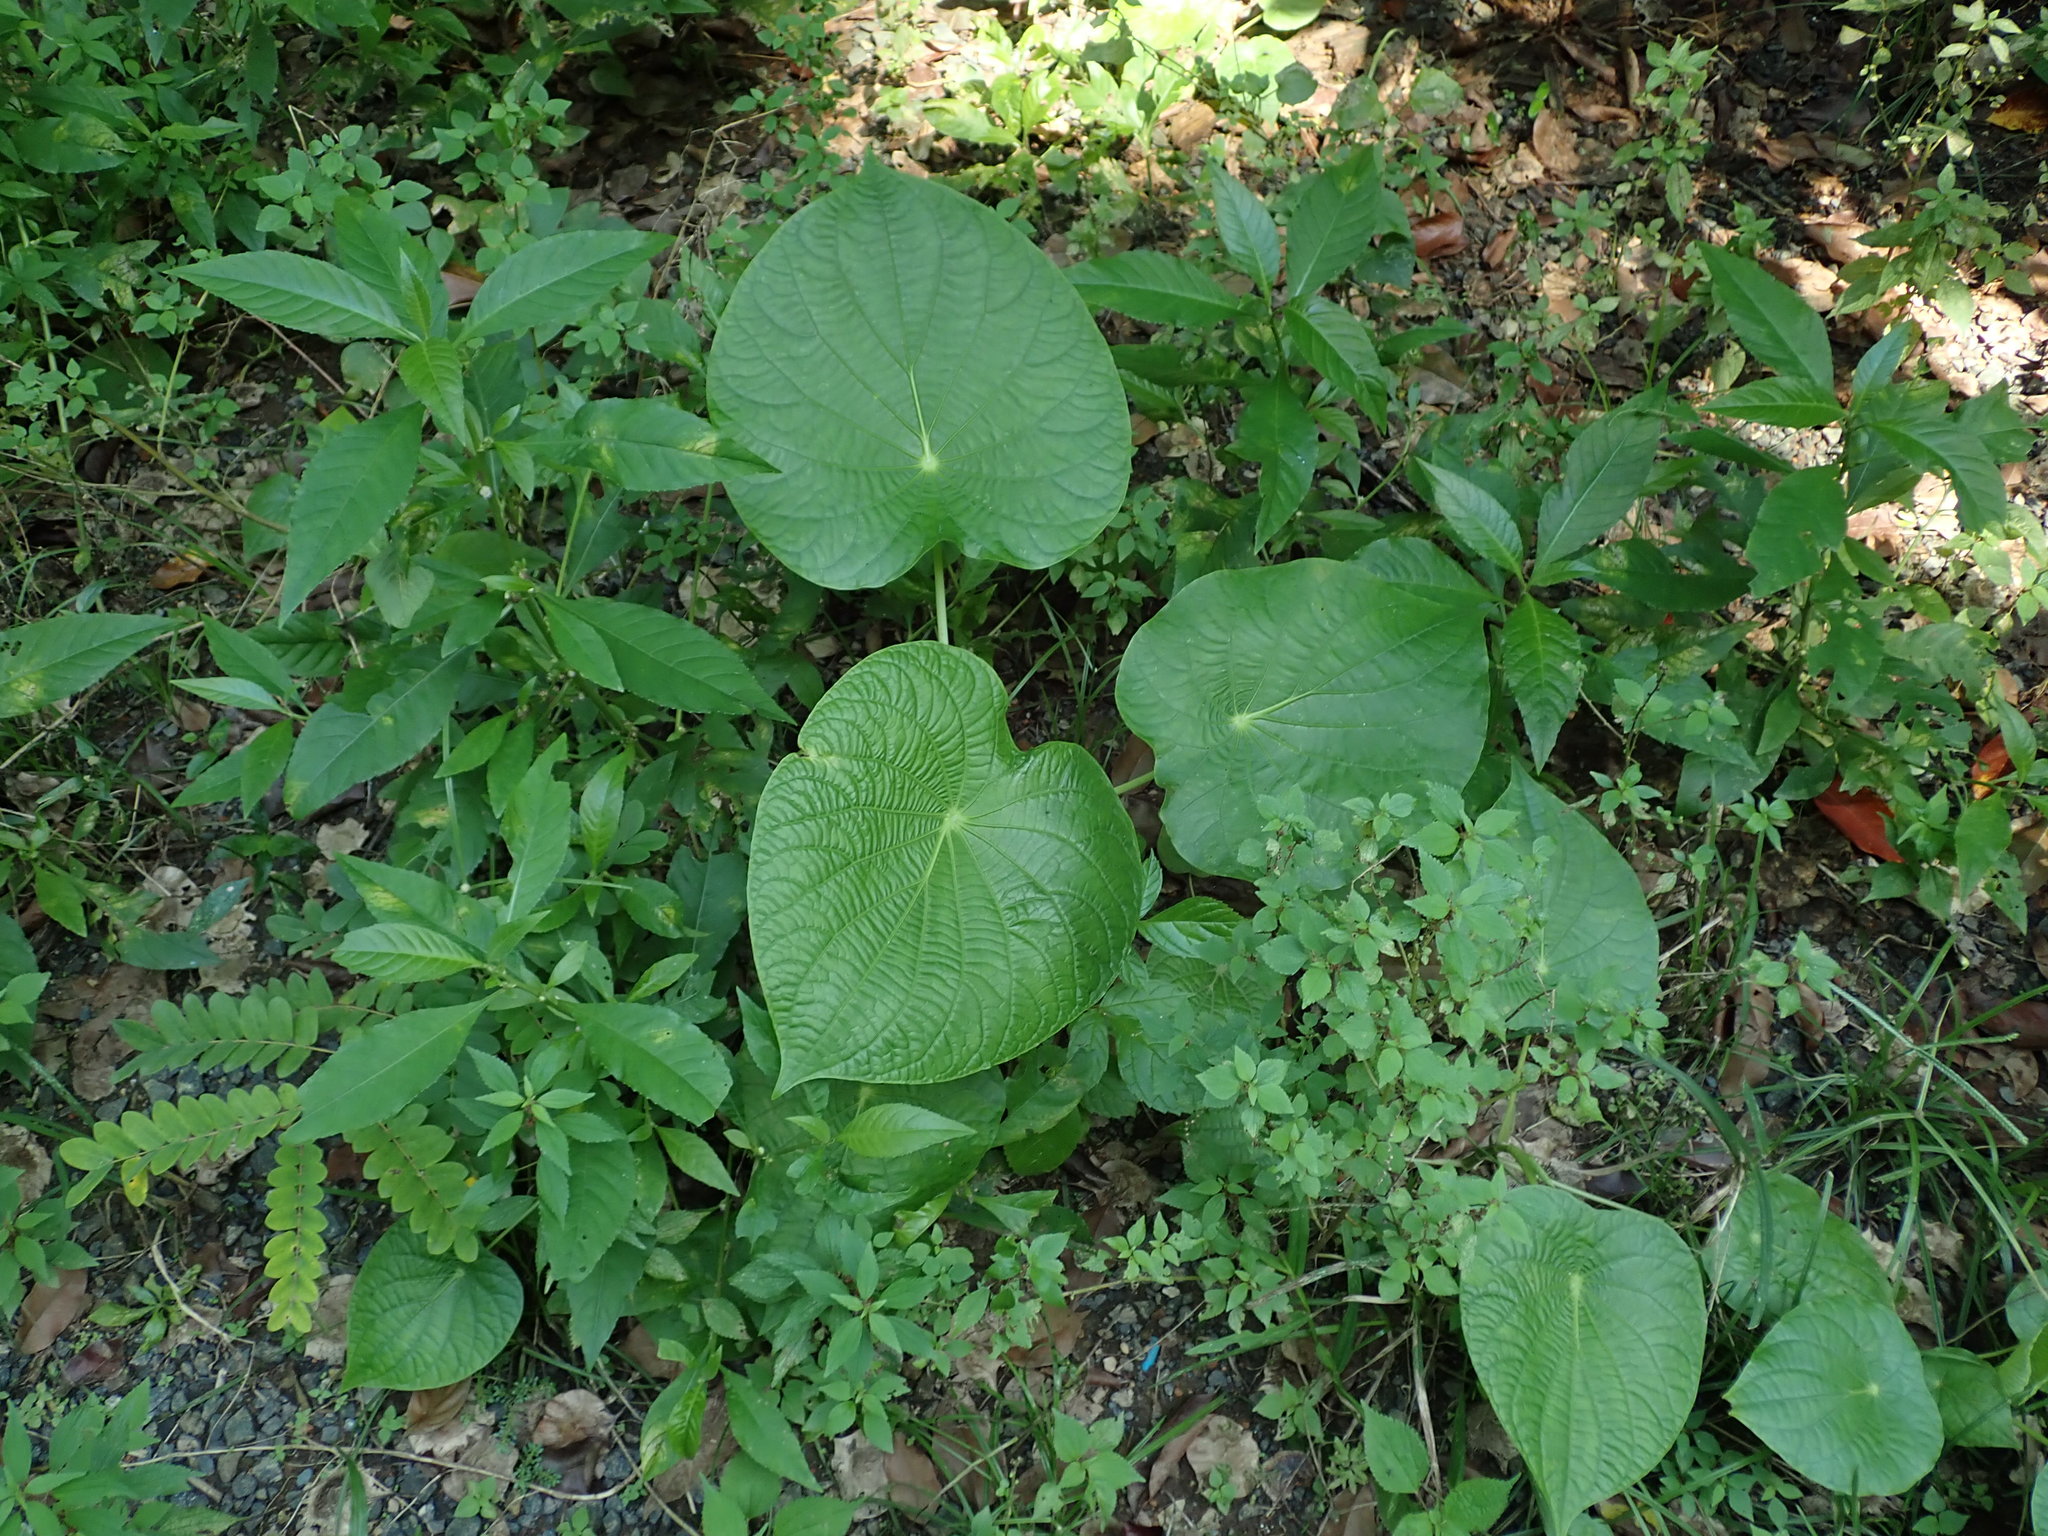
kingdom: Plantae
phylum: Tracheophyta
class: Magnoliopsida
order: Piperales
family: Piperaceae
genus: Piper
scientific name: Piper peltatum
